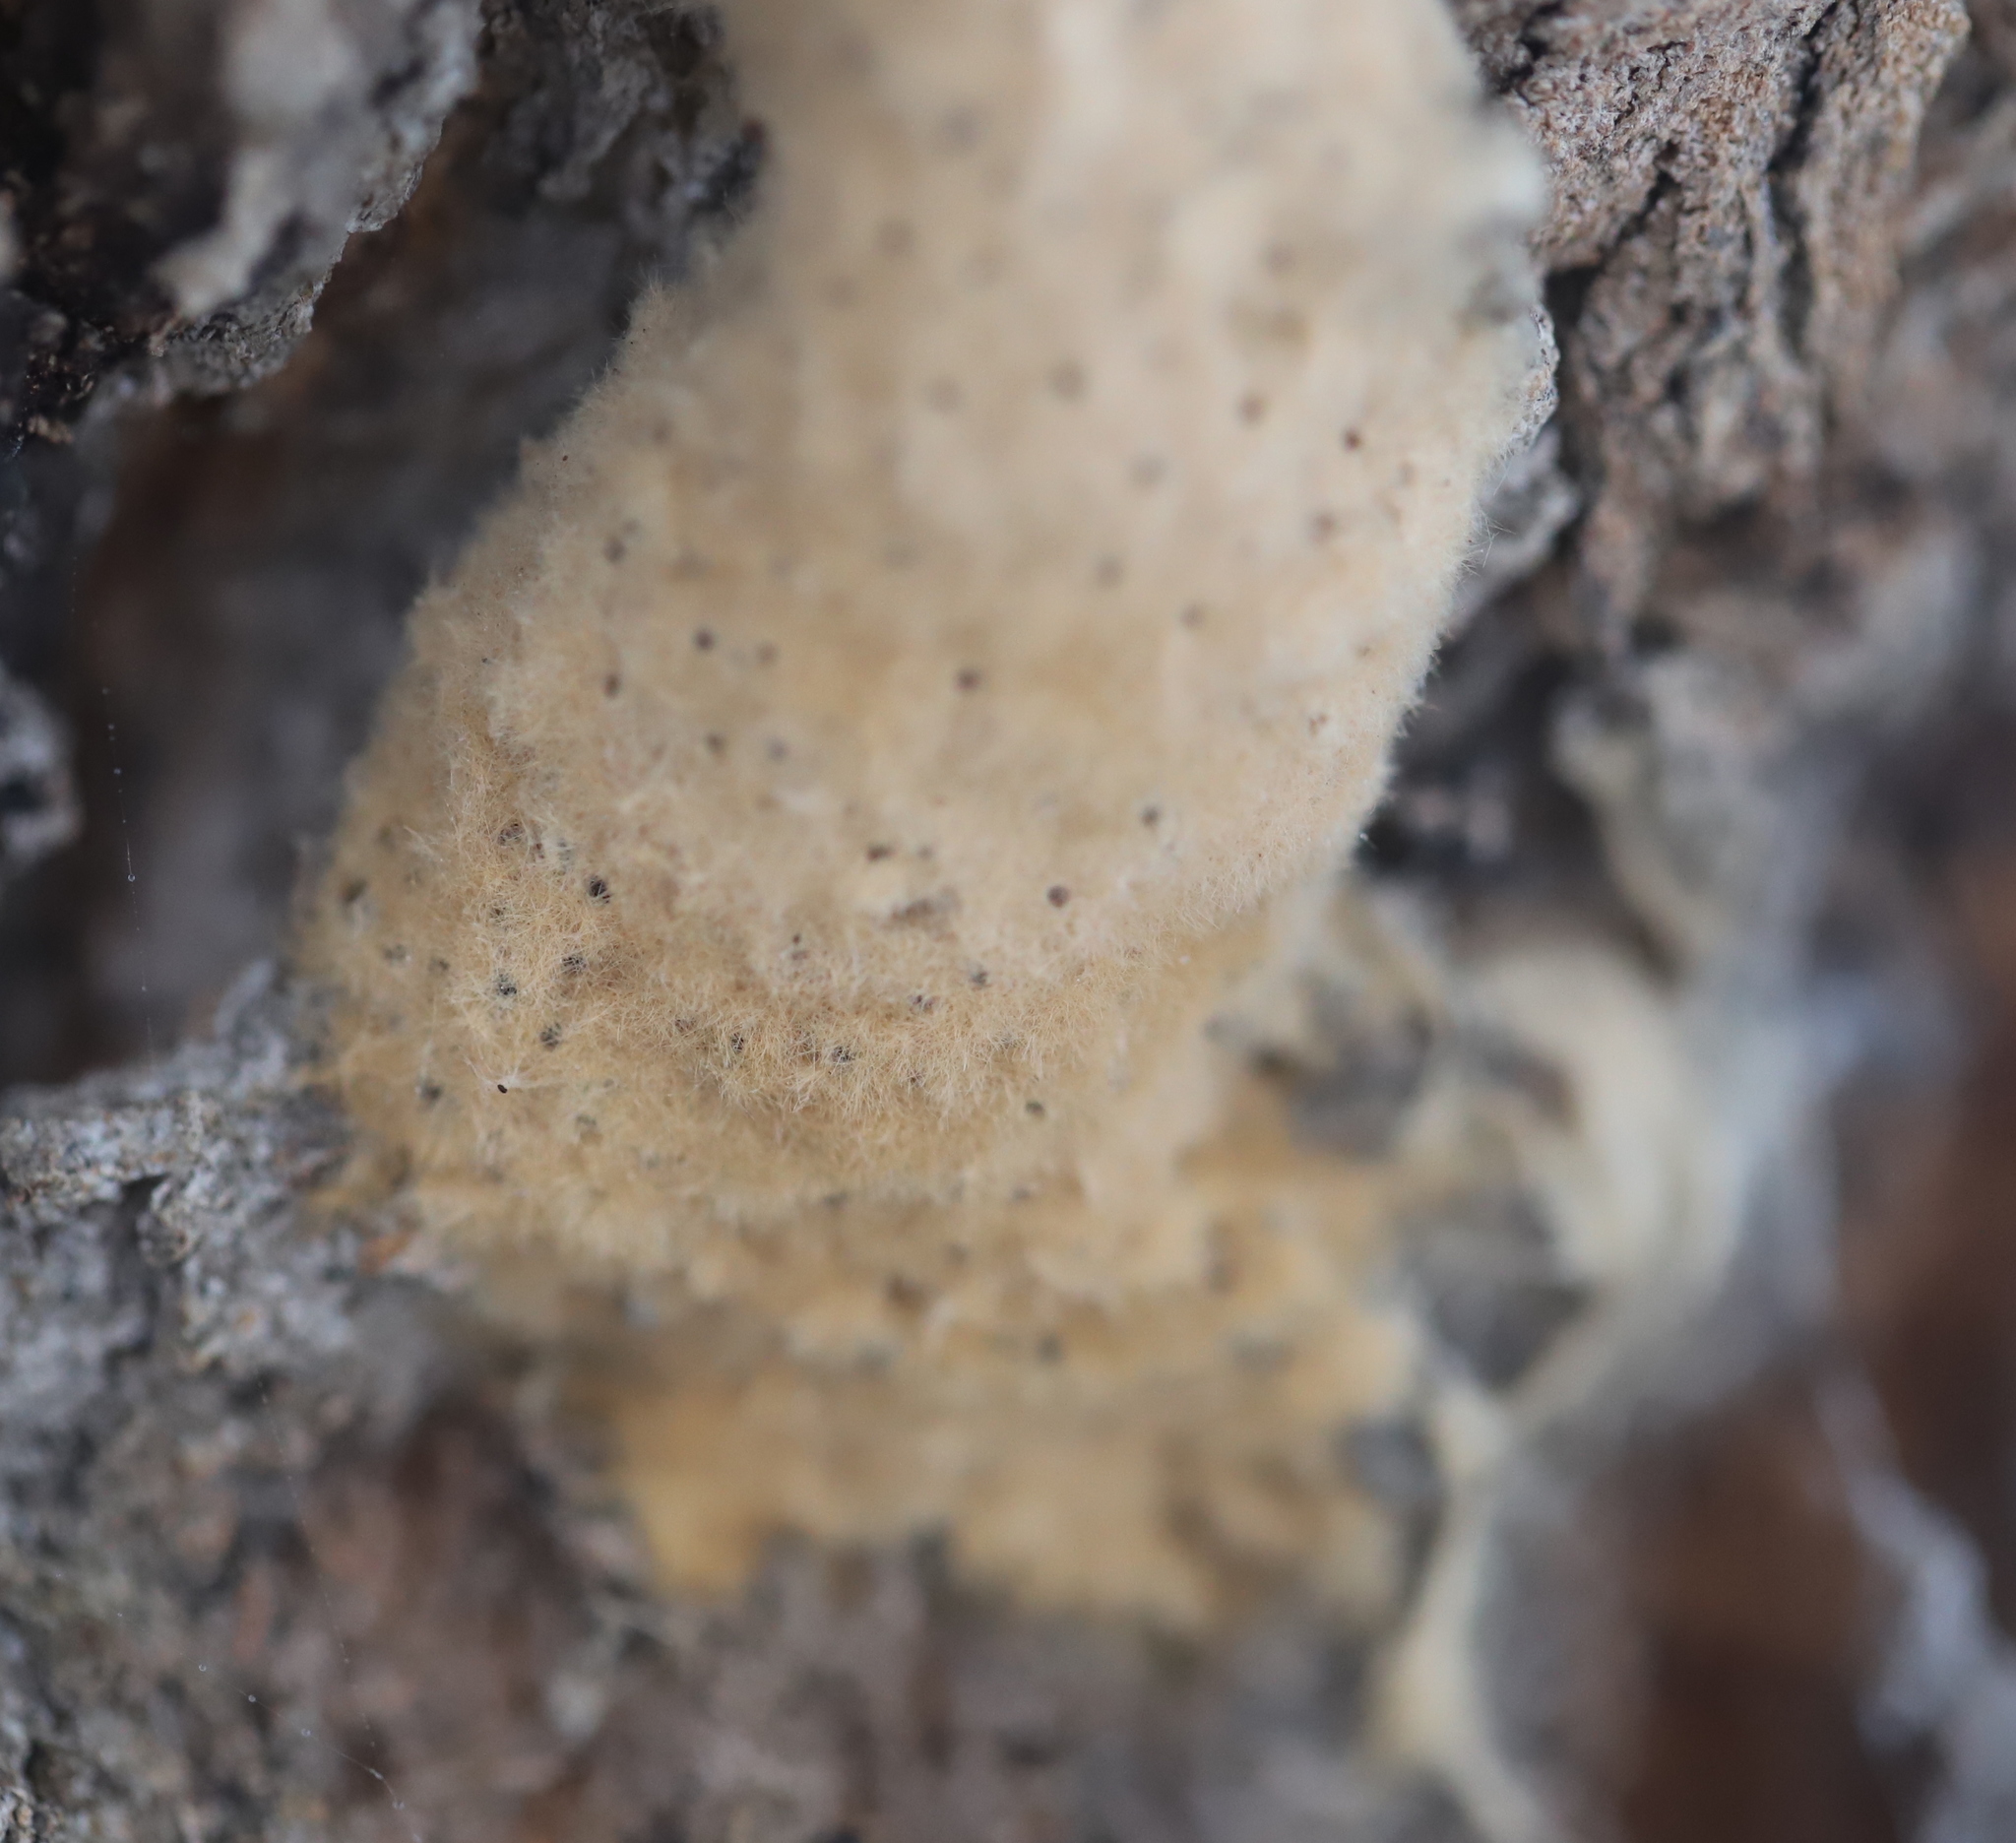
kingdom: Animalia
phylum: Arthropoda
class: Insecta
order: Lepidoptera
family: Erebidae
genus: Lymantria
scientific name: Lymantria dispar
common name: Gypsy moth
